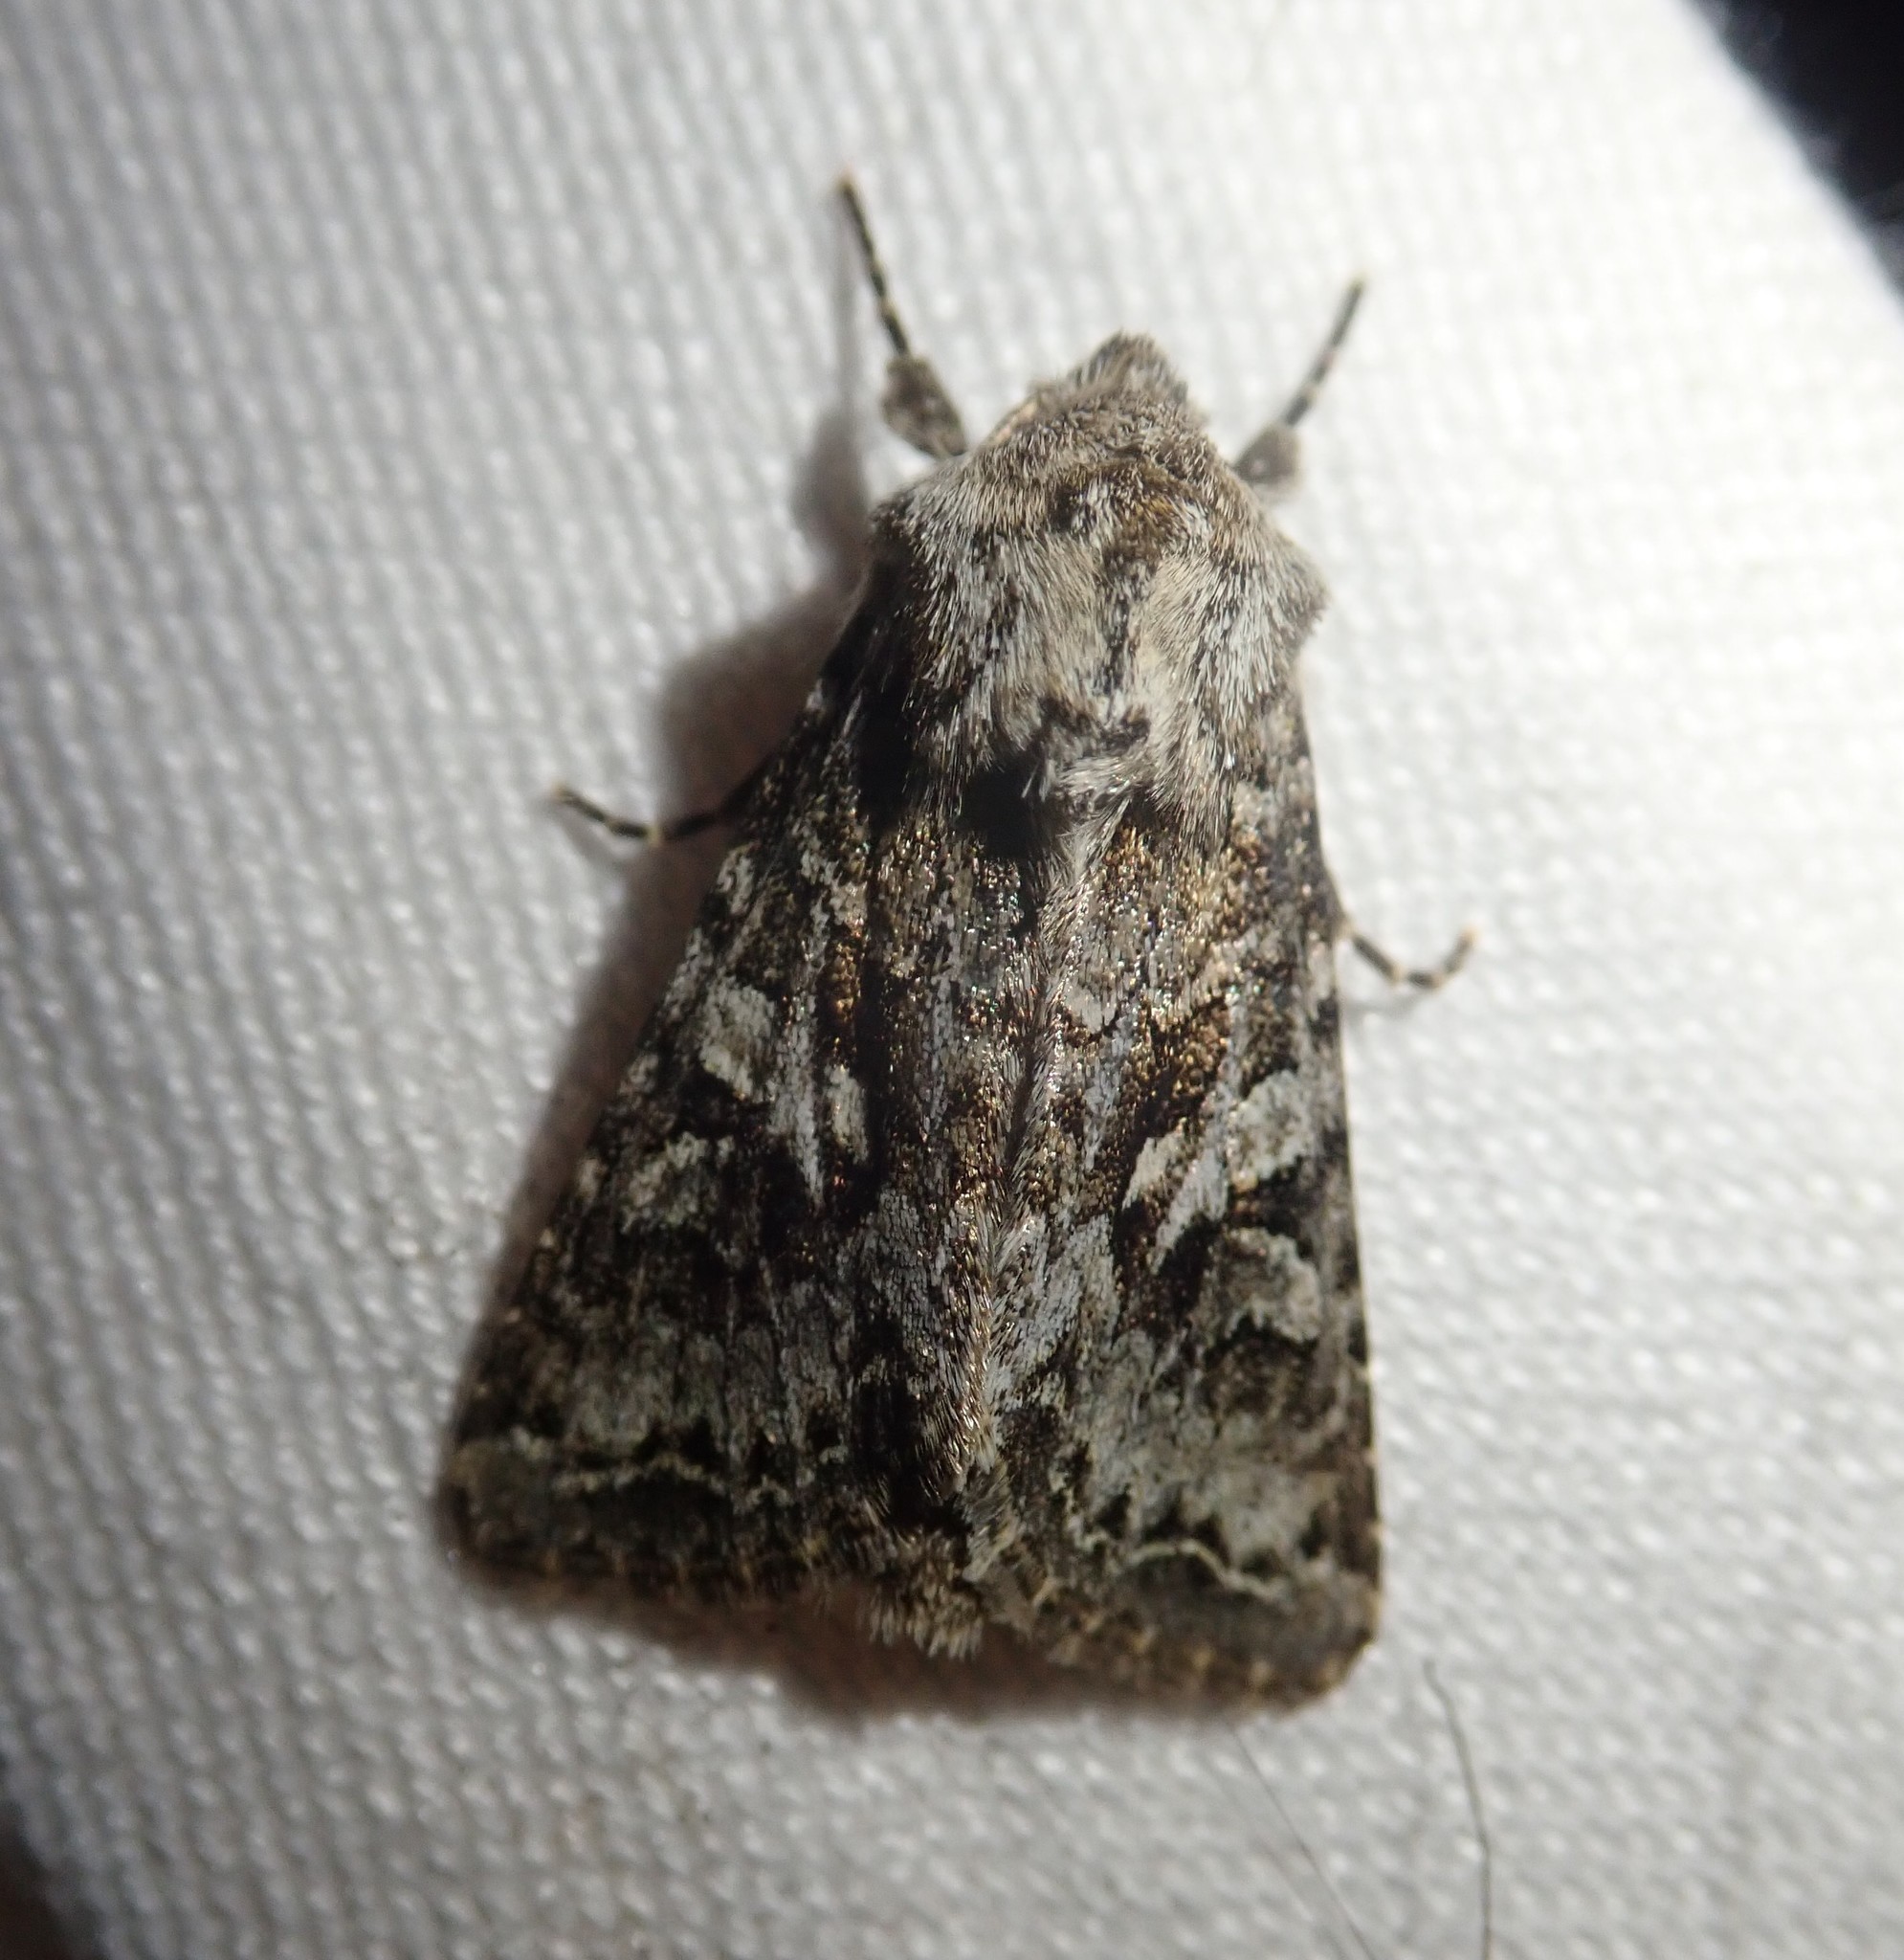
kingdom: Animalia
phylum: Arthropoda
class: Insecta
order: Lepidoptera
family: Noctuidae
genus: Hada
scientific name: Hada plebeja
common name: Shears
